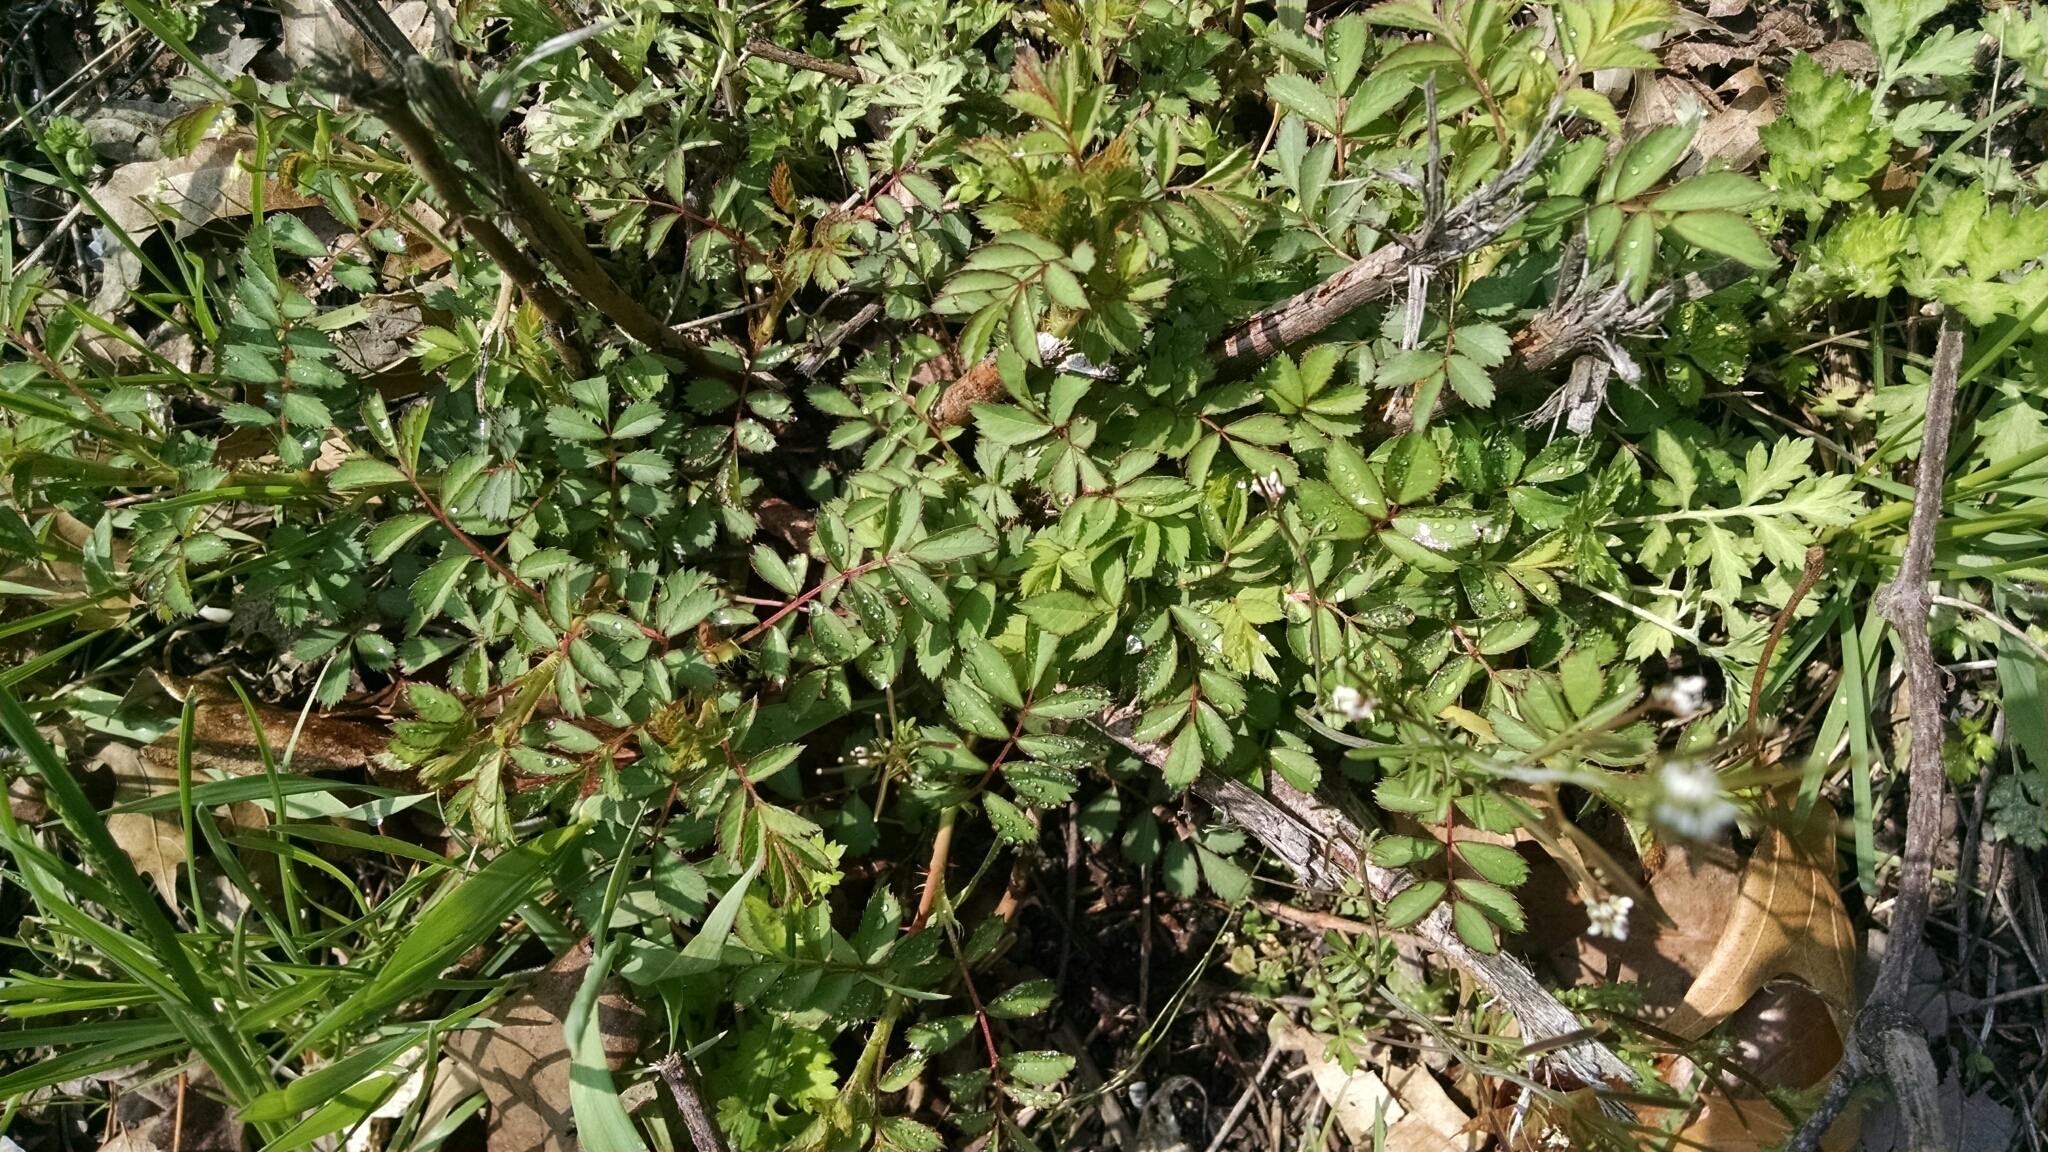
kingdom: Plantae
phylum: Tracheophyta
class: Magnoliopsida
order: Rosales
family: Rosaceae
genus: Rosa
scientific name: Rosa multiflora
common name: Multiflora rose
